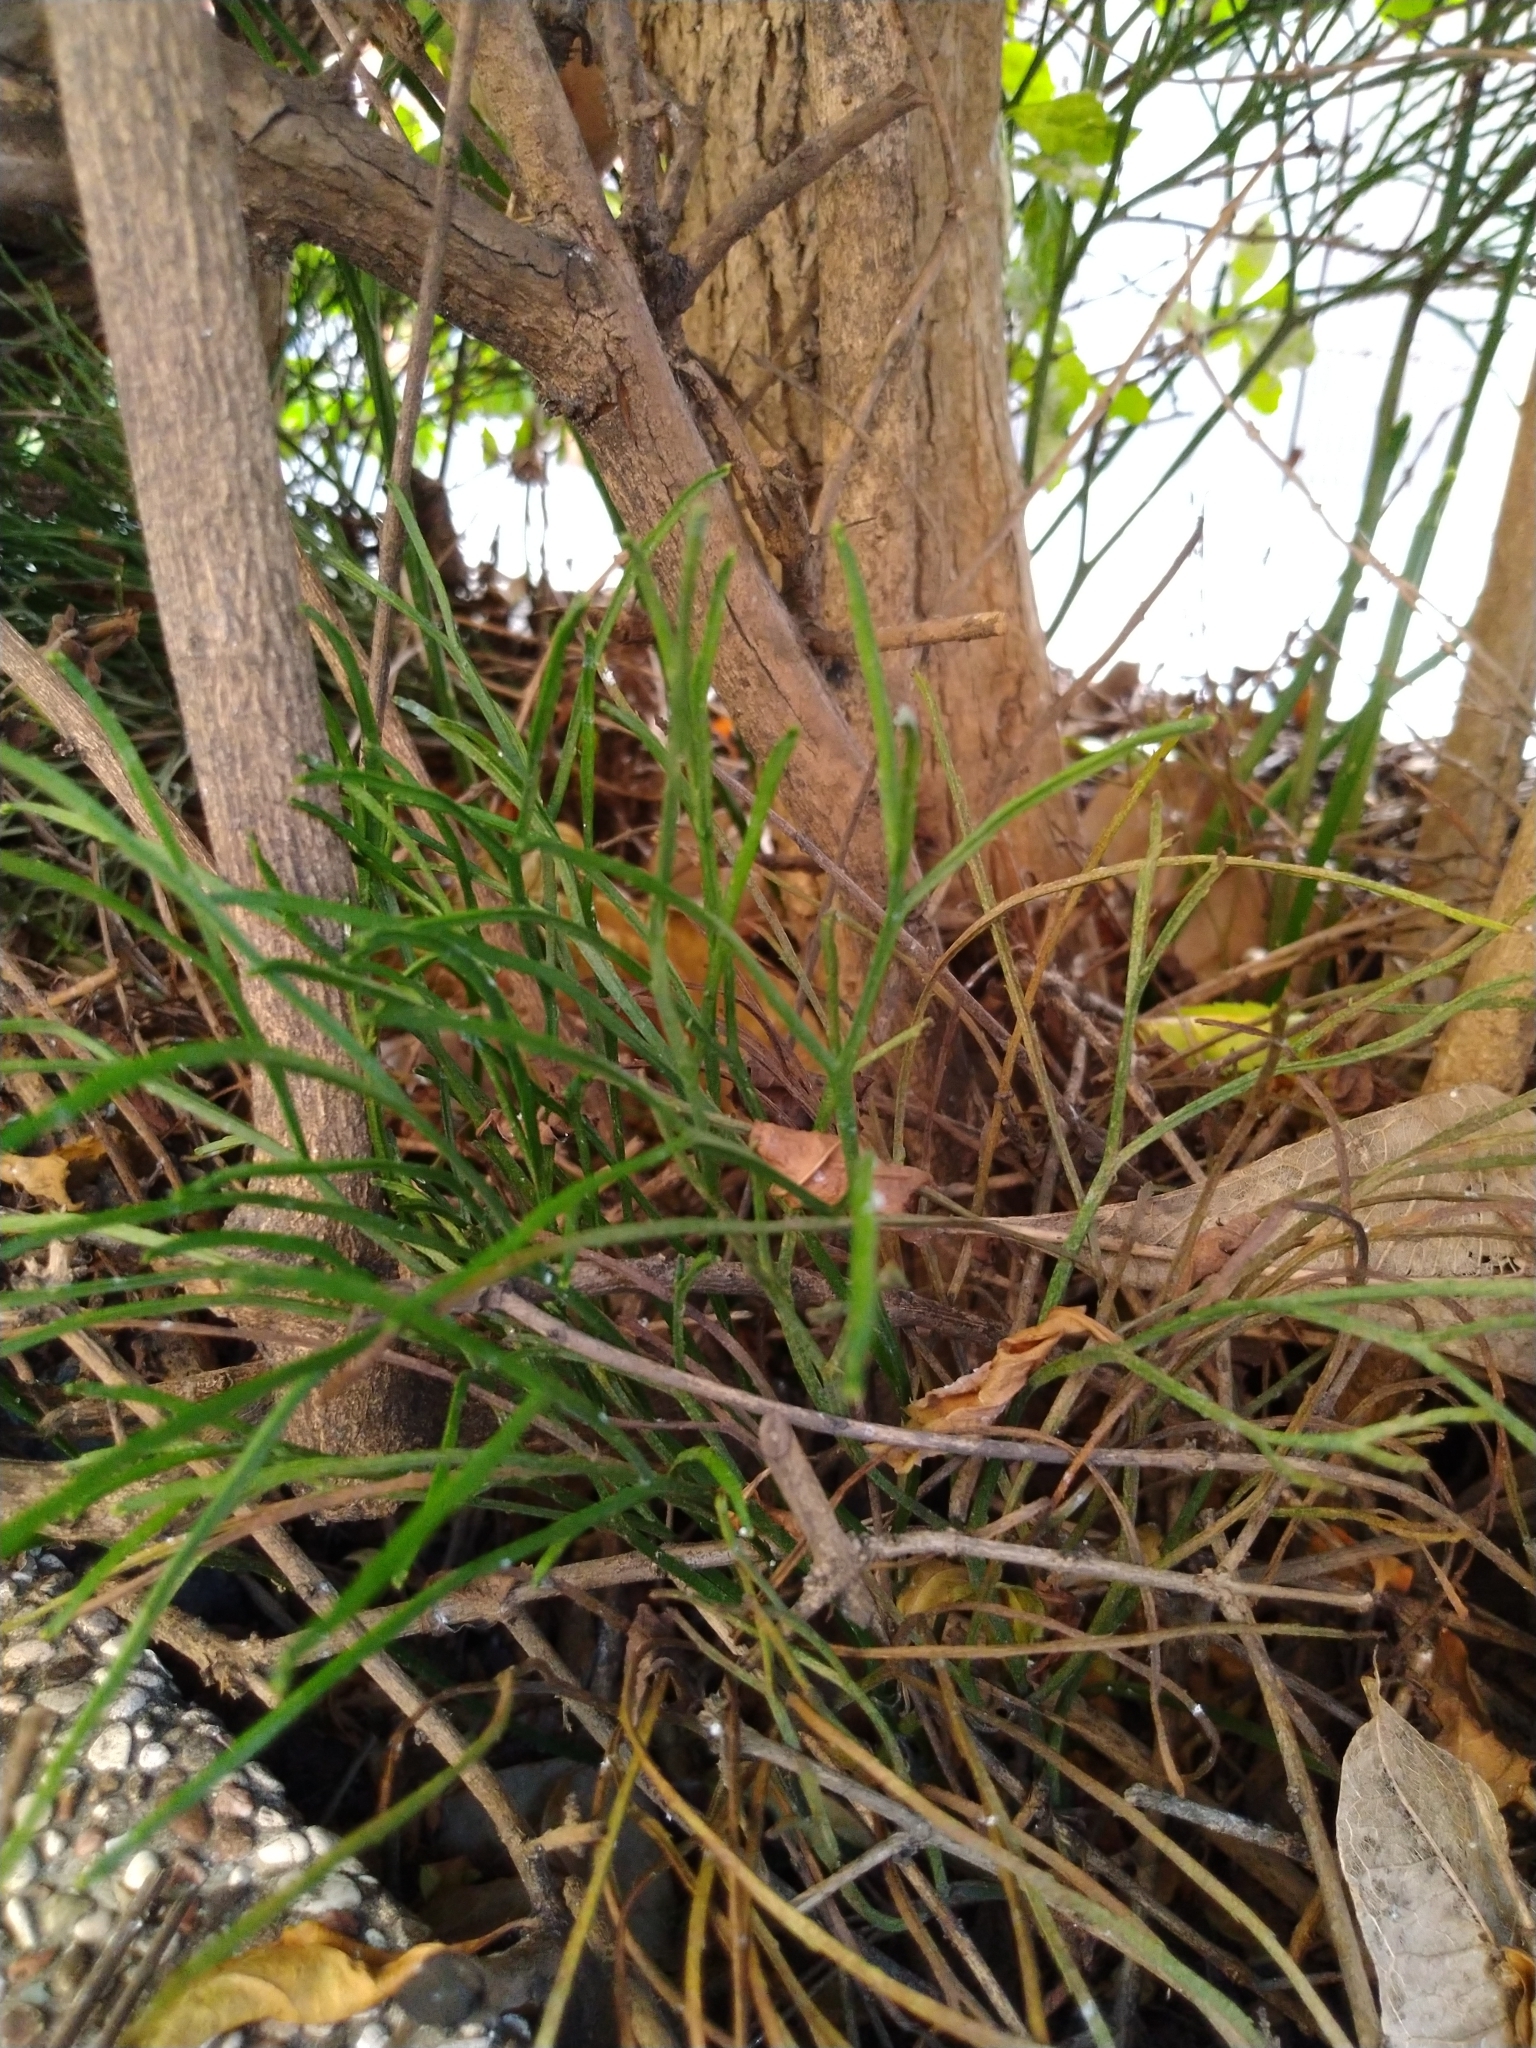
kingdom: Plantae
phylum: Tracheophyta
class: Polypodiopsida
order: Psilotales
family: Psilotaceae
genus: Psilotum
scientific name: Psilotum nudum
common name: Skeleton fork fern
